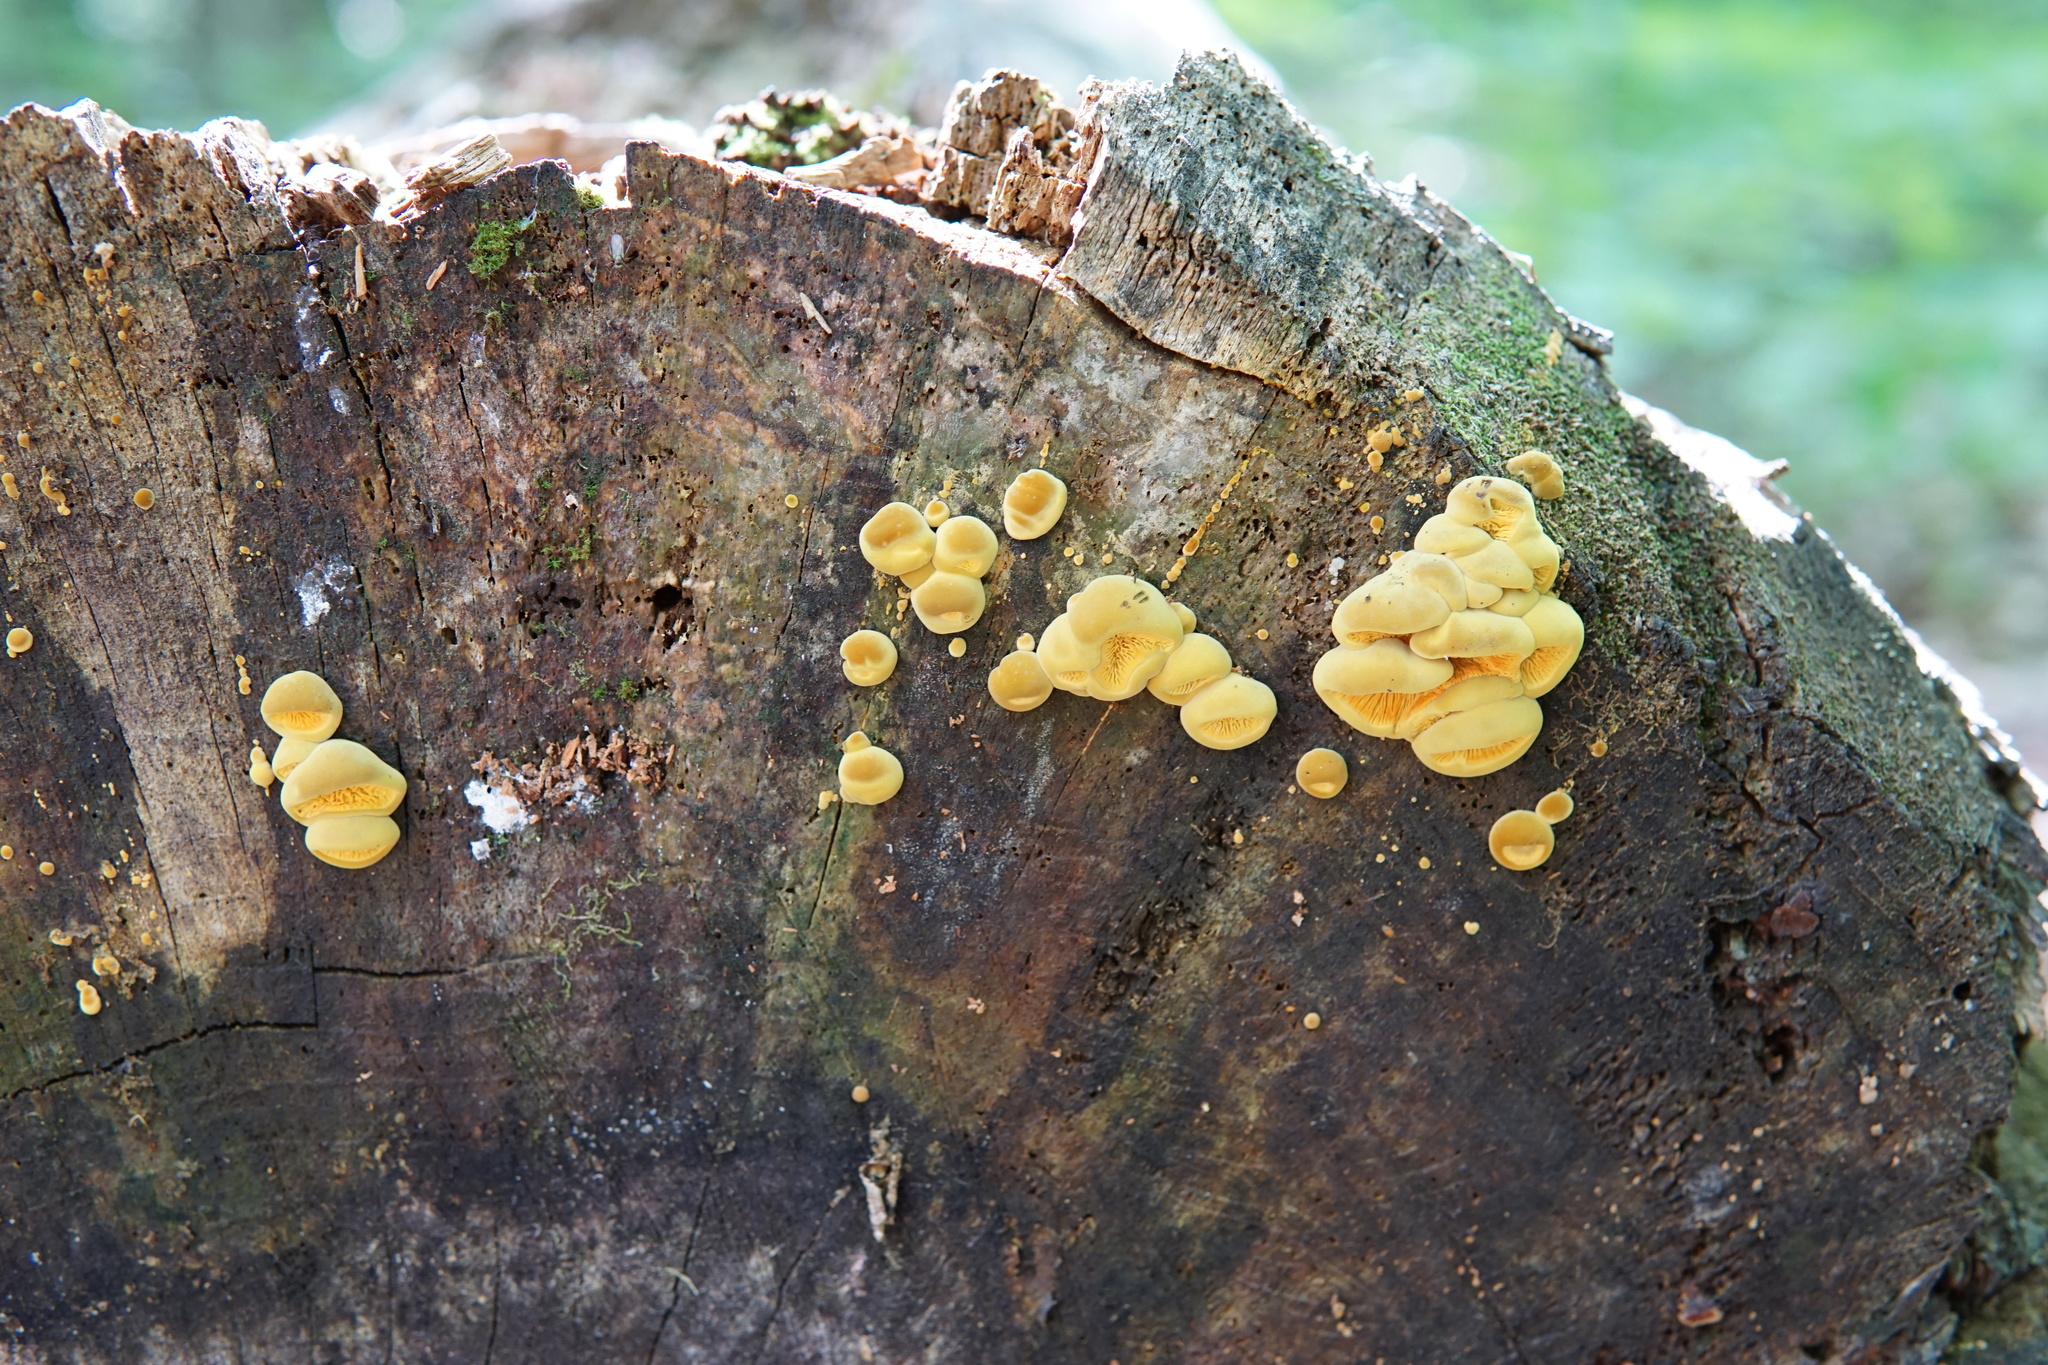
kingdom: Fungi
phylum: Basidiomycota
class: Agaricomycetes
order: Boletales
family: Paxillaceae
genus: Meiorganum
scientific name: Meiorganum curtisii
